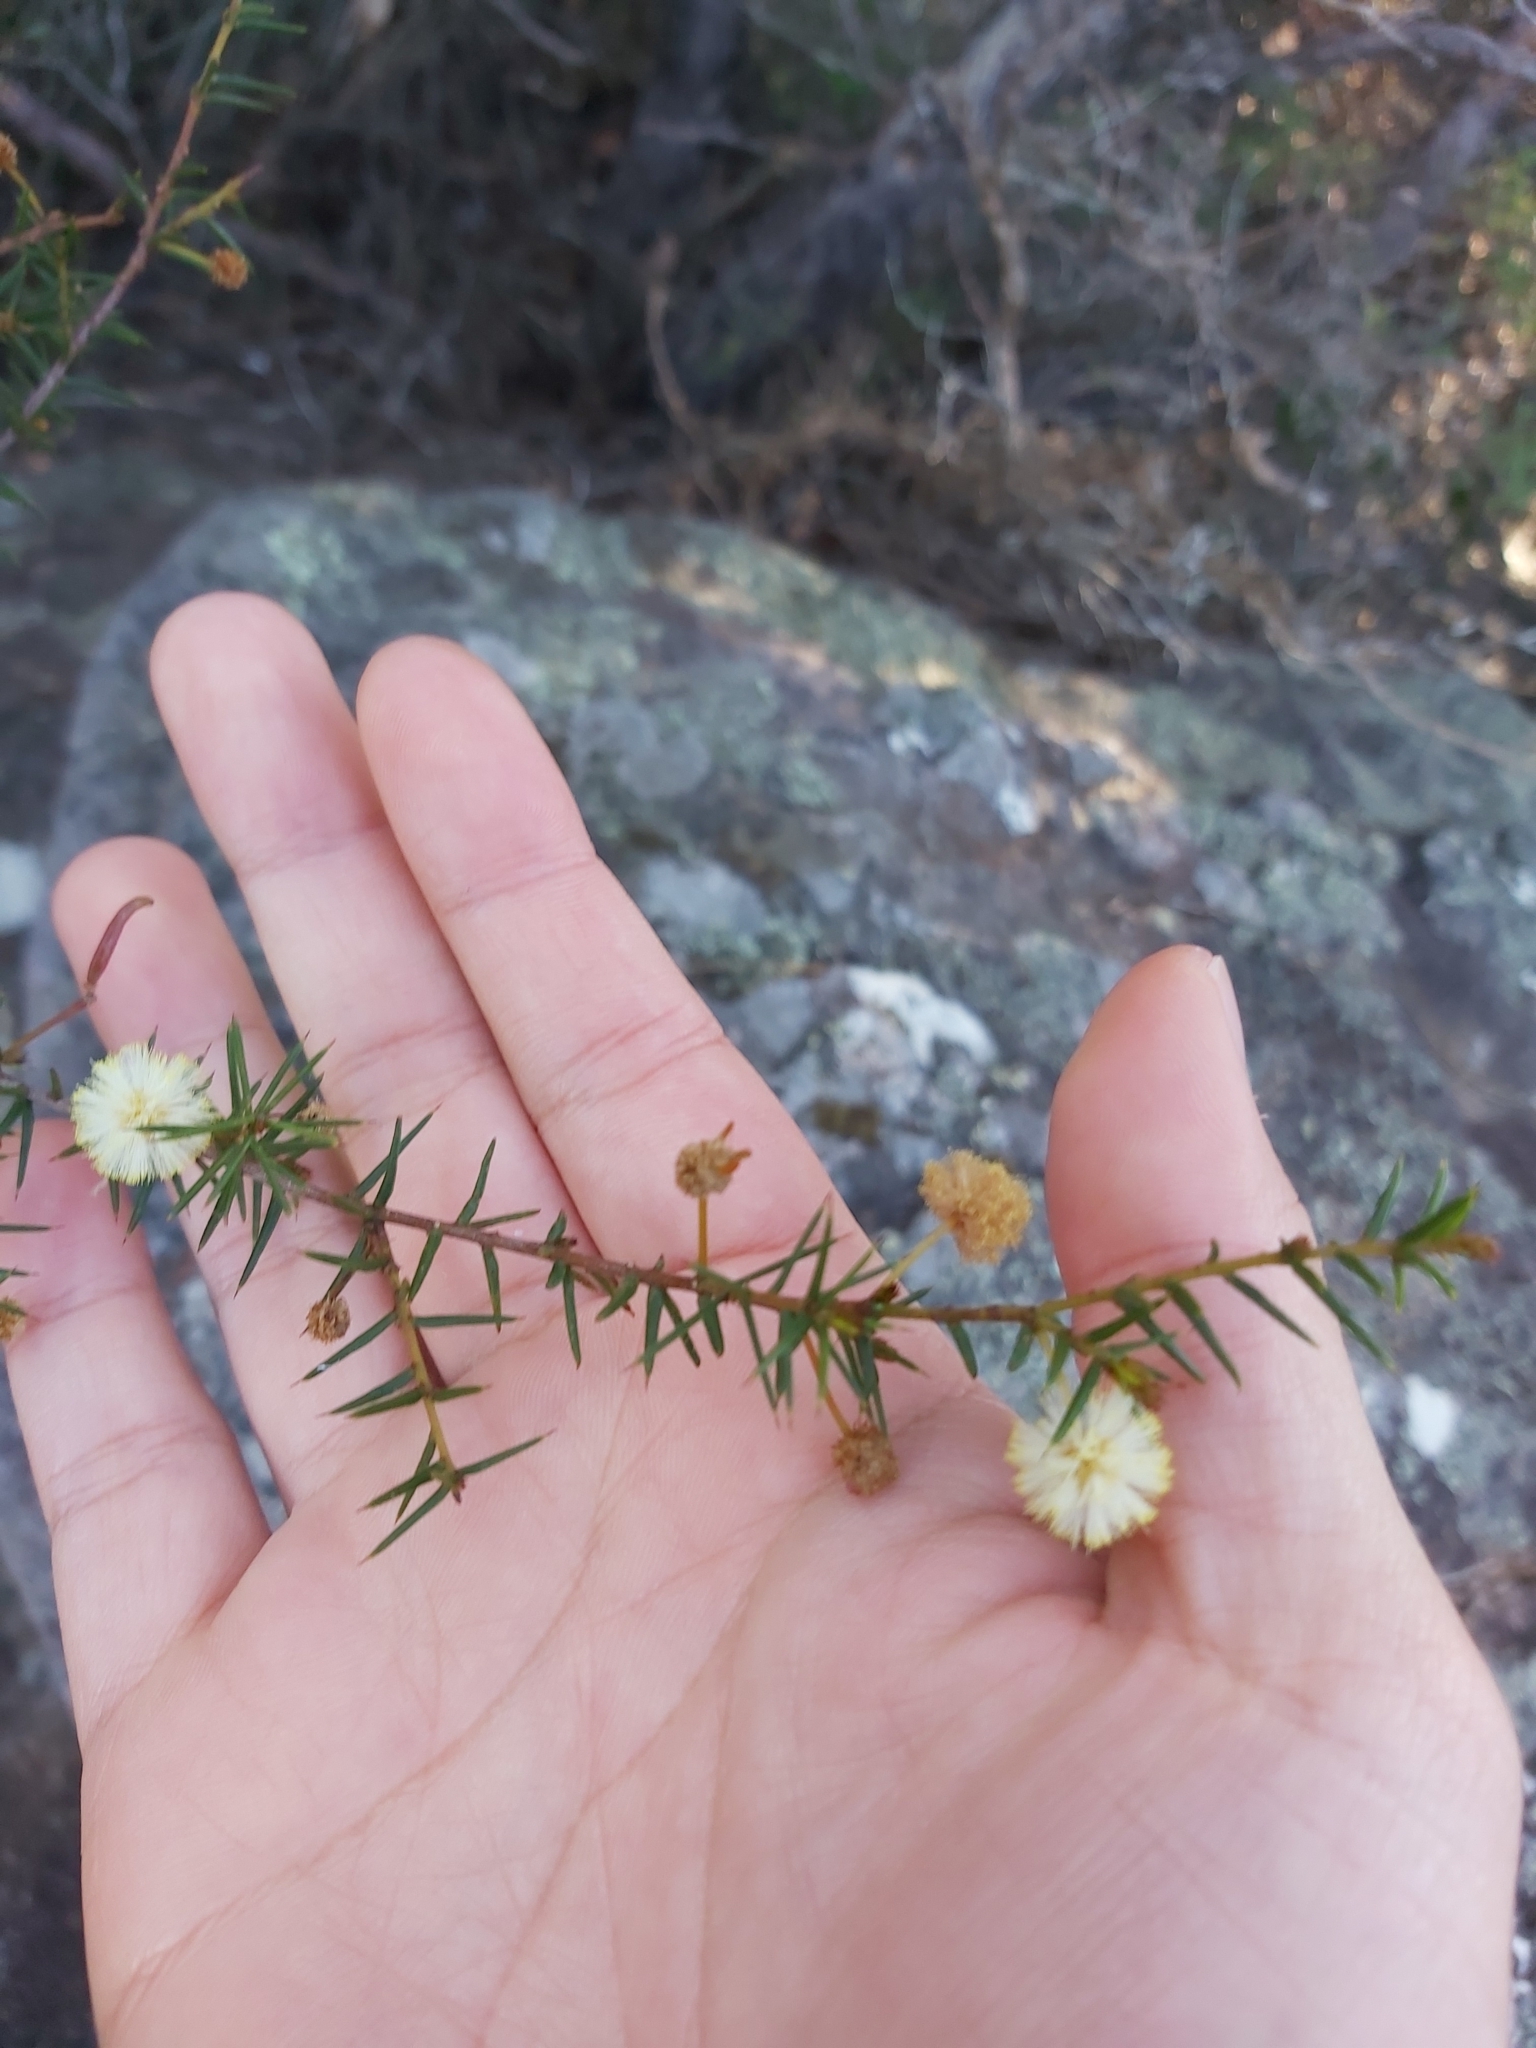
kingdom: Plantae
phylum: Tracheophyta
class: Magnoliopsida
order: Fabales
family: Fabaceae
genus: Acacia
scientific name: Acacia ulicifolia
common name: Juniper wattle
